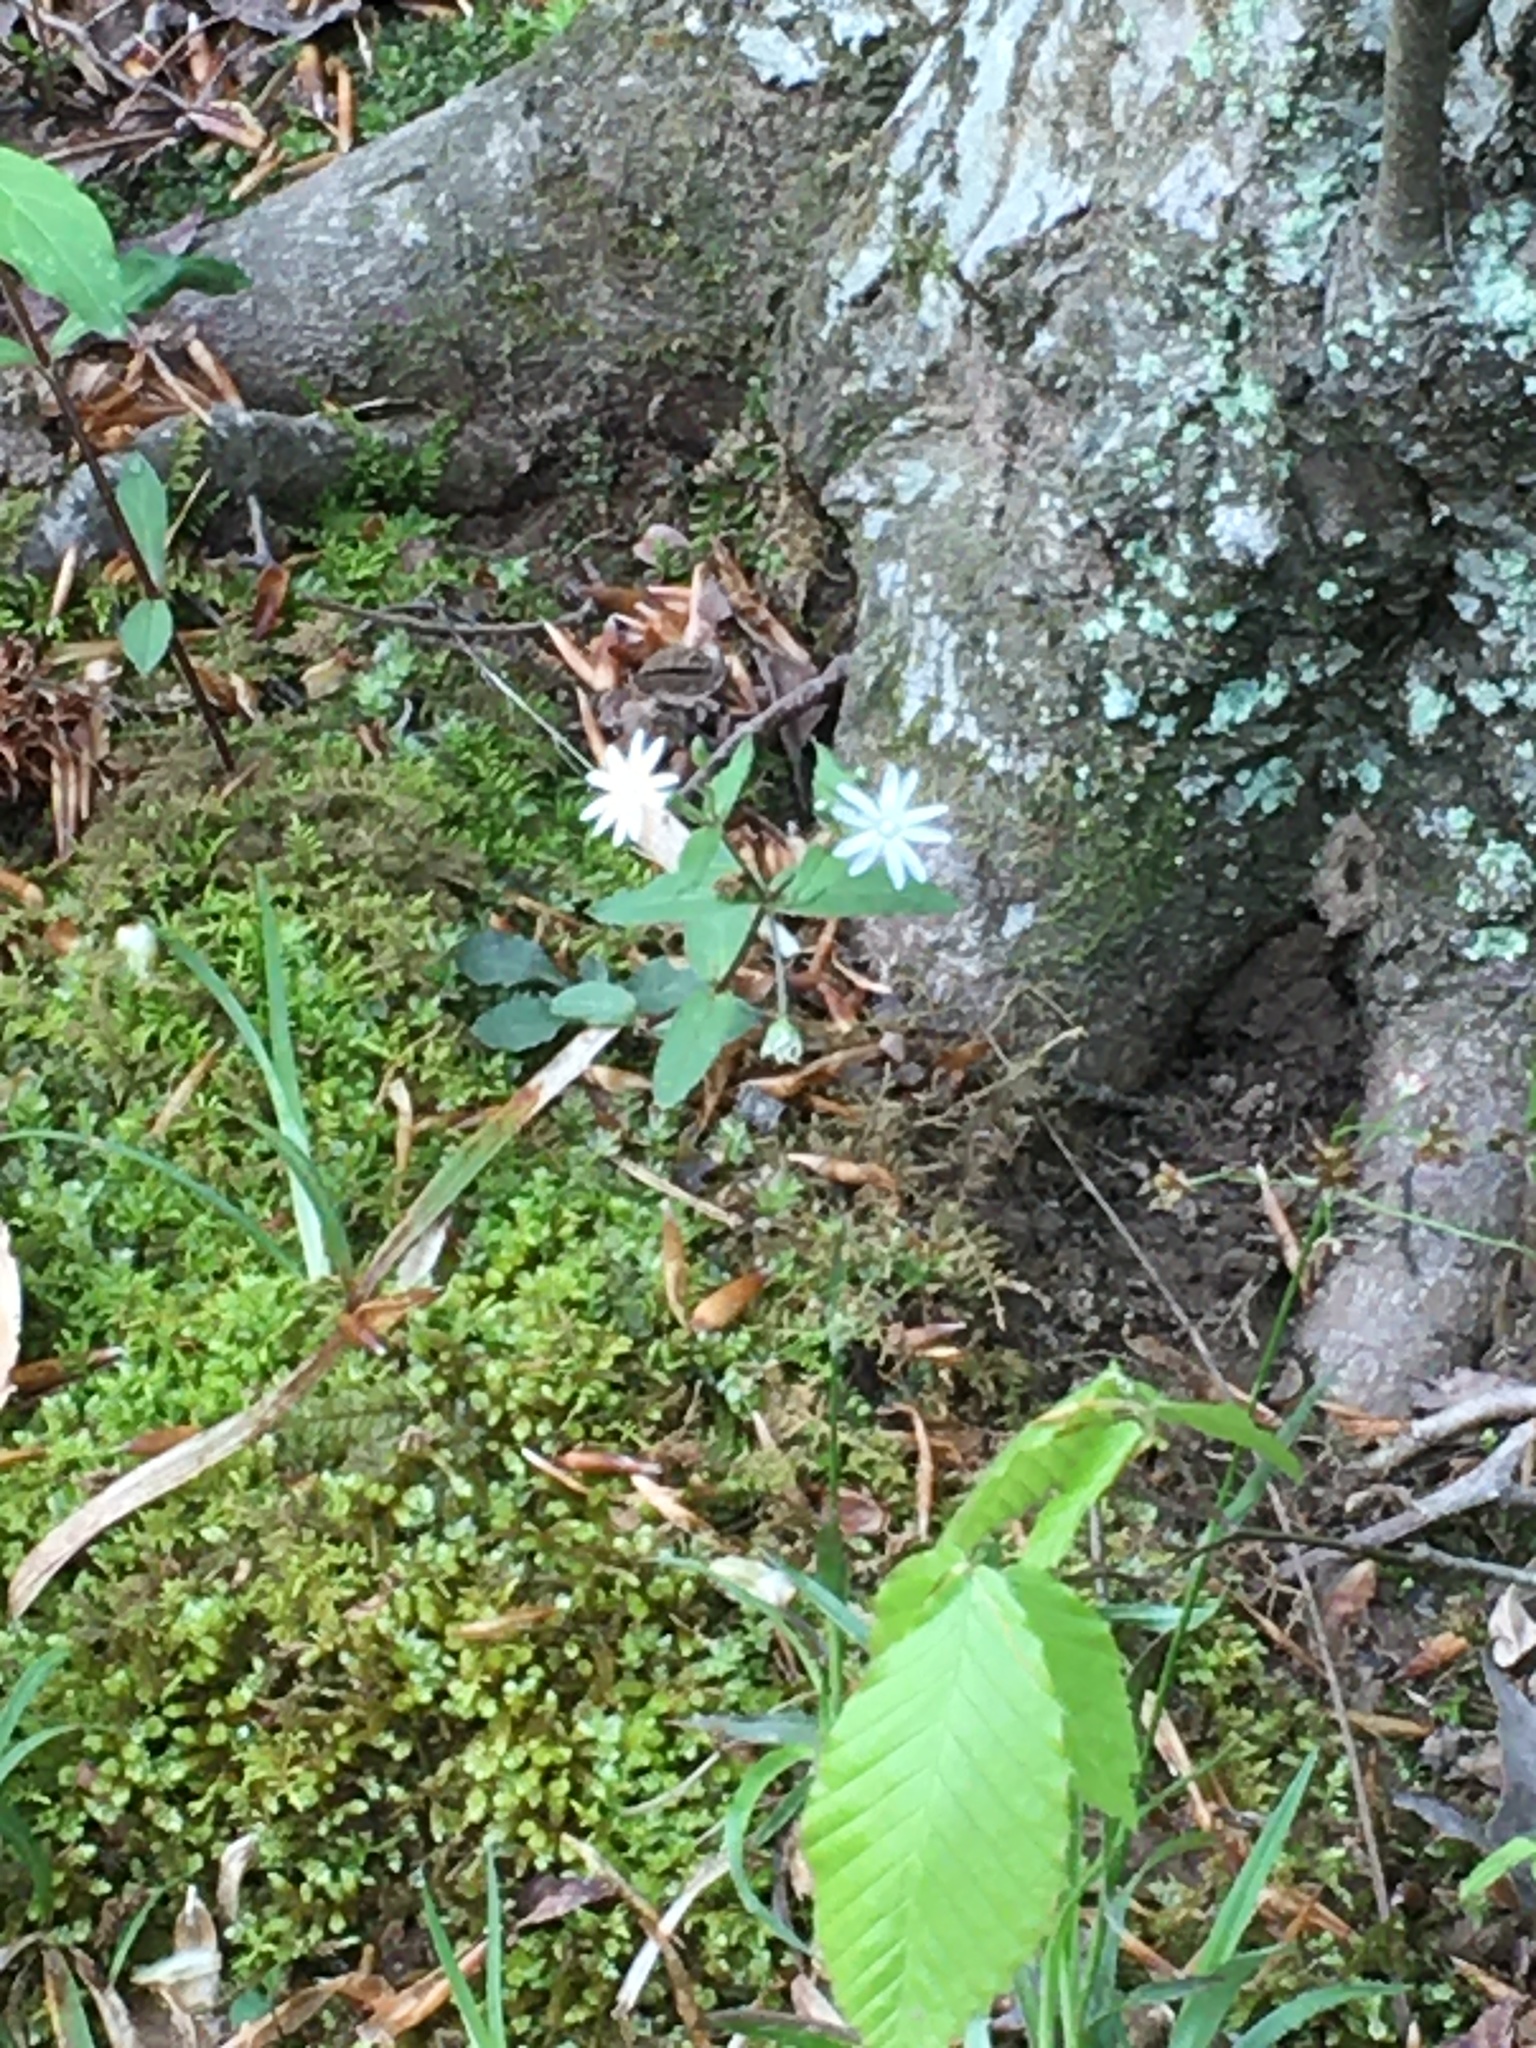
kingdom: Plantae
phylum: Tracheophyta
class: Magnoliopsida
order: Caryophyllales
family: Caryophyllaceae
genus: Stellaria
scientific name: Stellaria pubera
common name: Star chickweed
